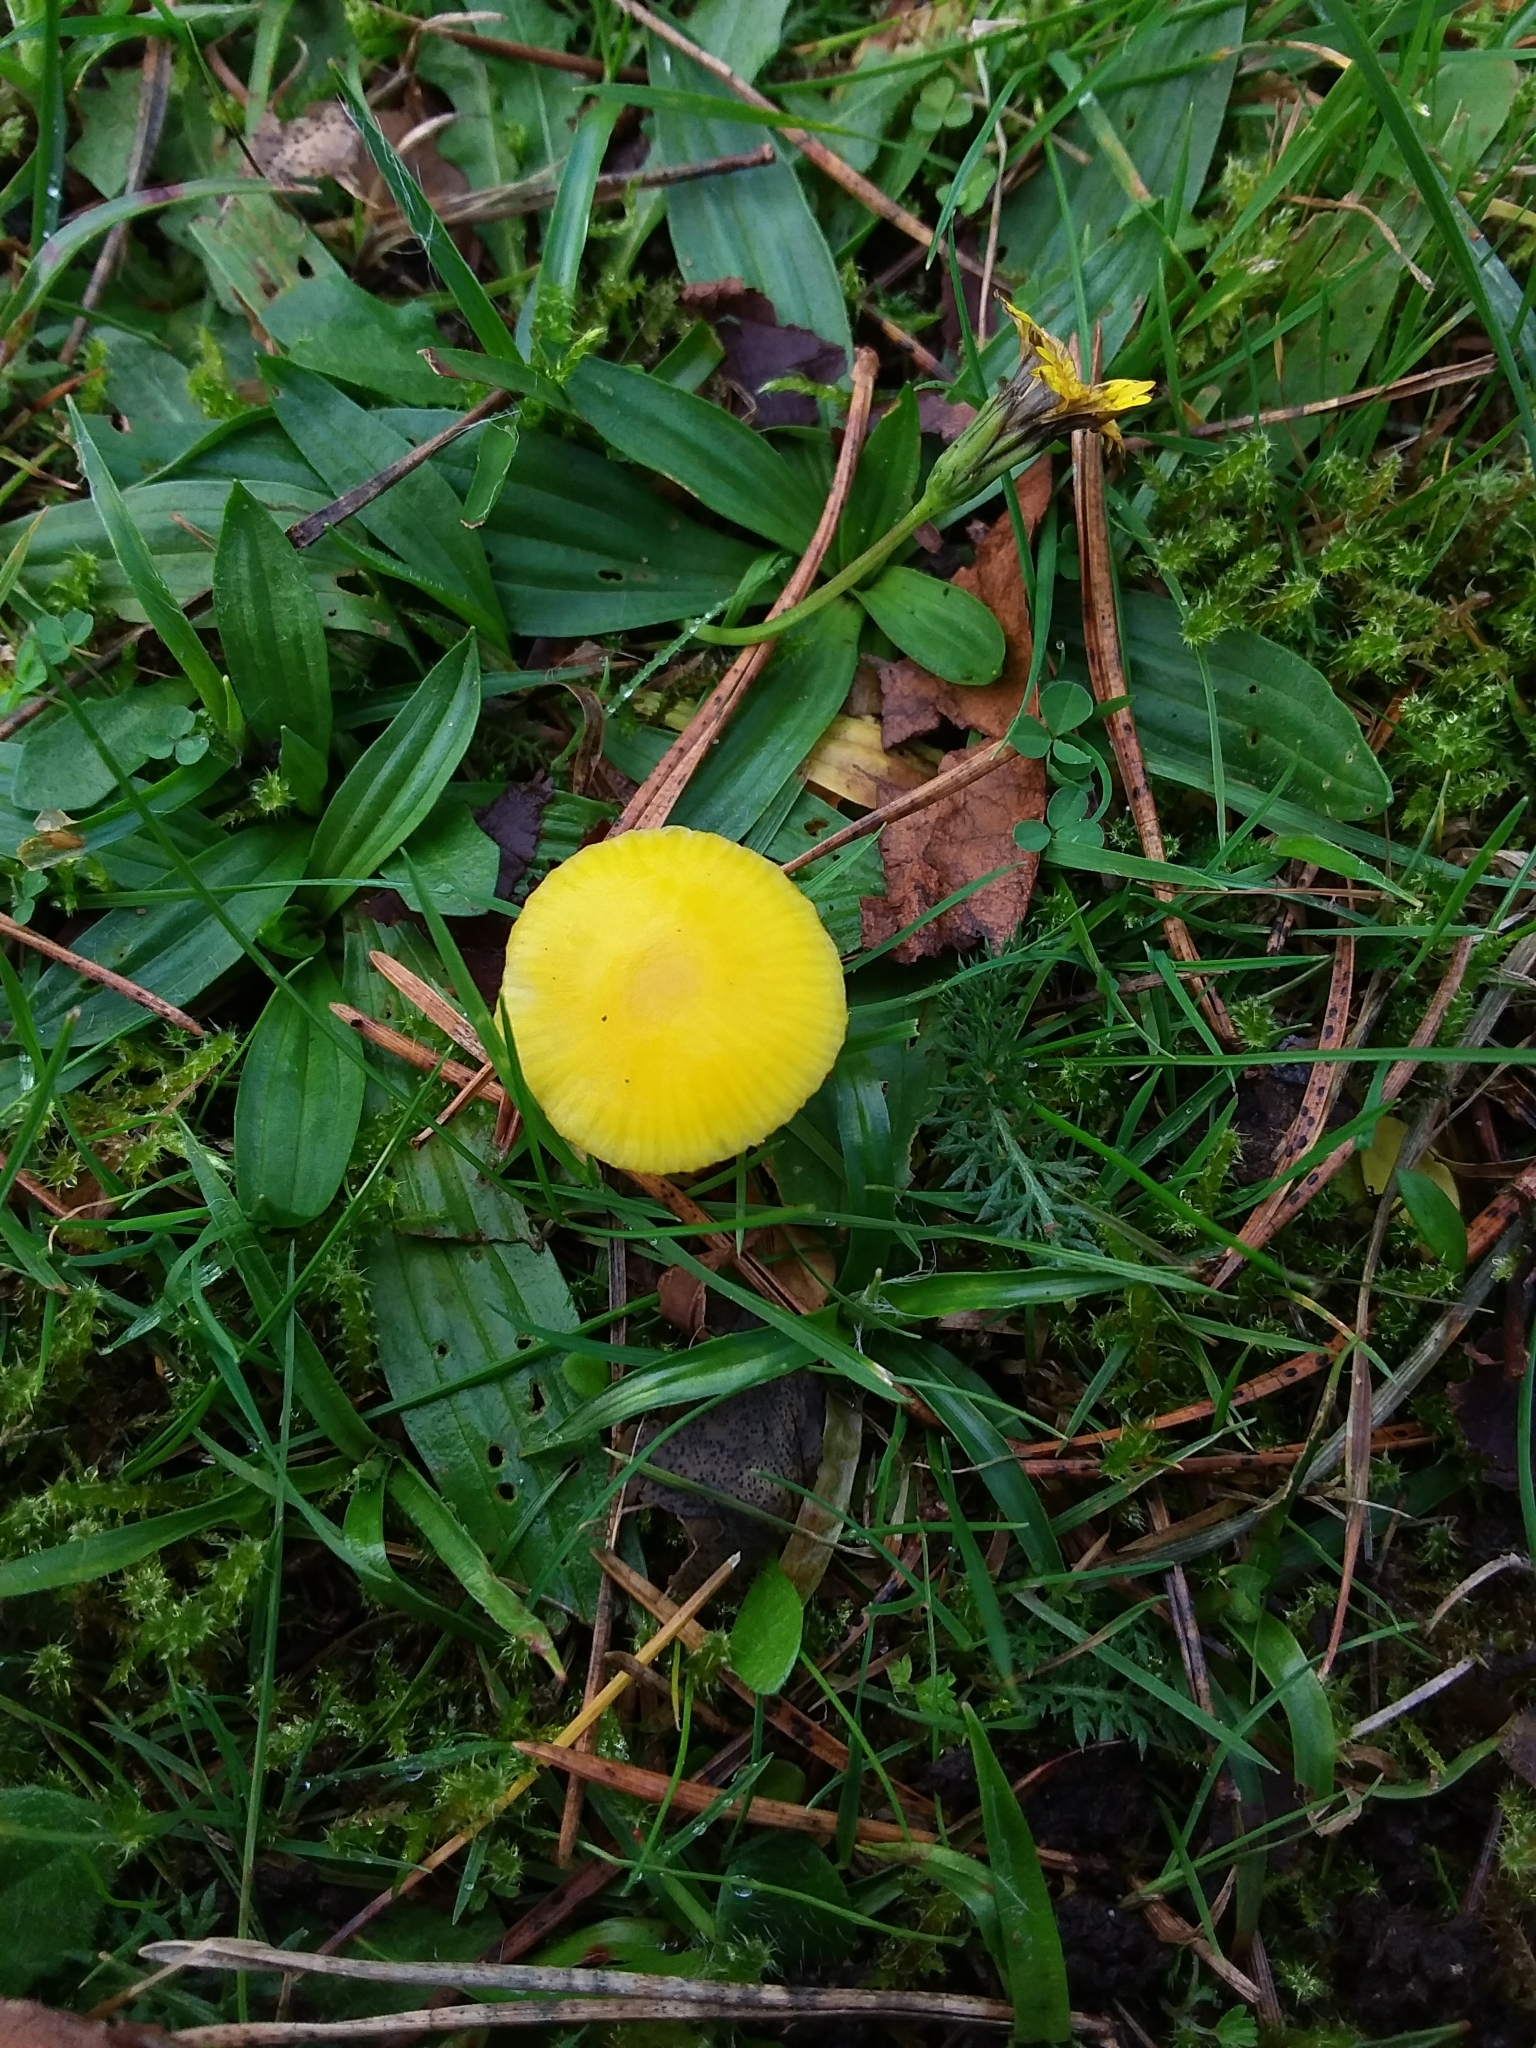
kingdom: Fungi
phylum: Basidiomycota
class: Agaricomycetes
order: Agaricales
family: Hygrophoraceae
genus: Hygrocybe
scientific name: Hygrocybe ceracea
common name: Butter waxcap
